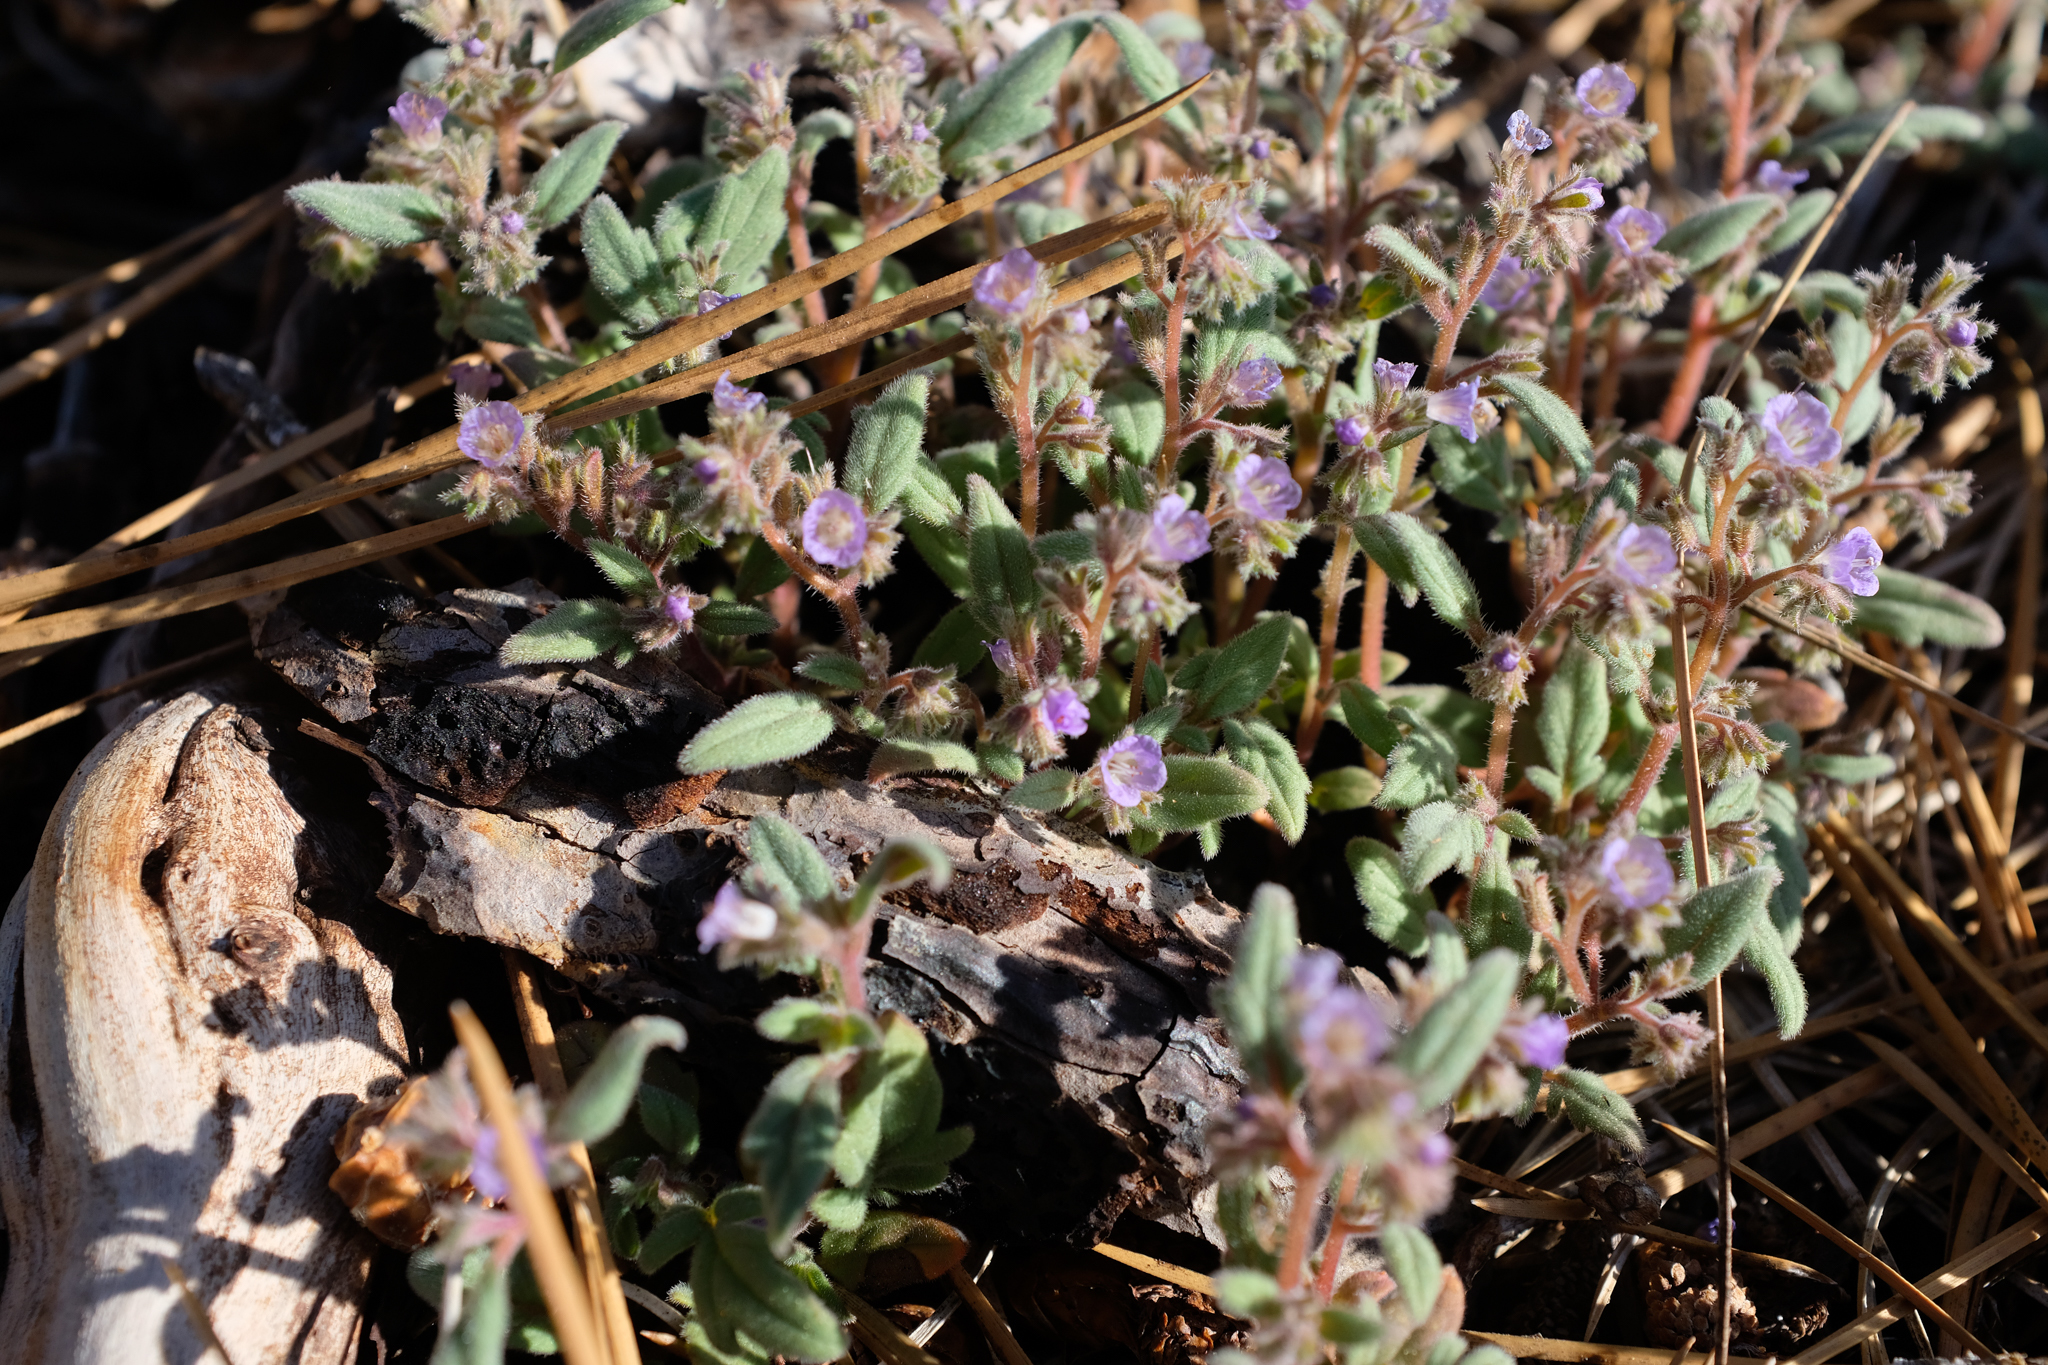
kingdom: Plantae
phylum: Tracheophyta
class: Magnoliopsida
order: Boraginales
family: Hydrophyllaceae
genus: Phacelia
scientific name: Phacelia austromontana
